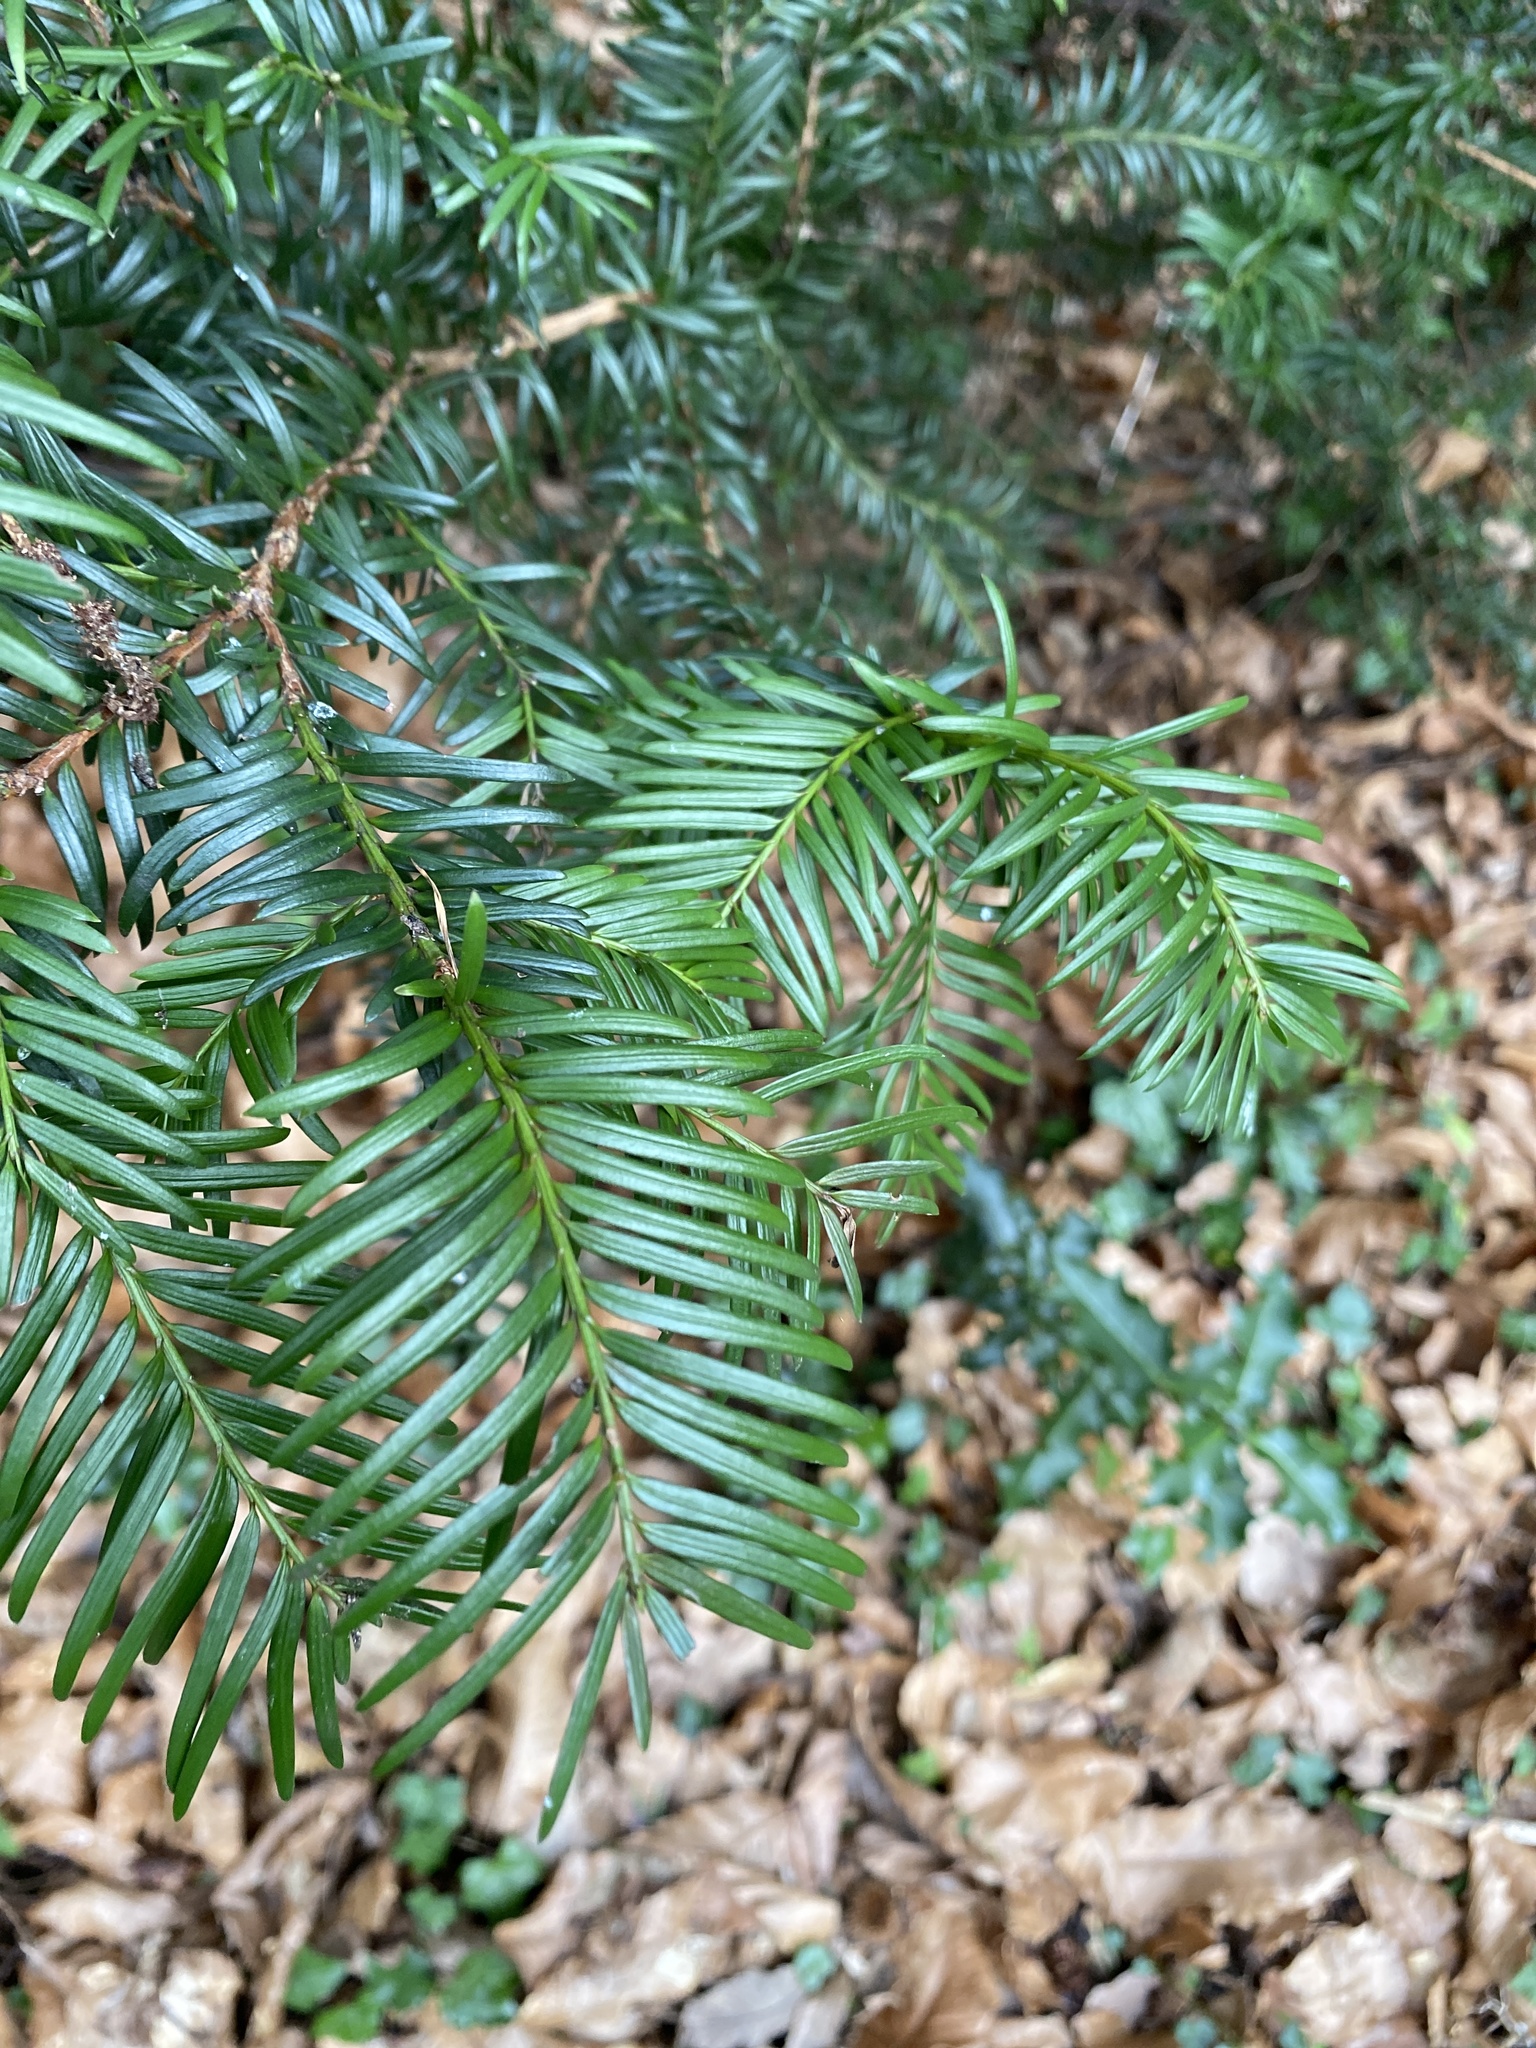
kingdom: Plantae
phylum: Tracheophyta
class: Pinopsida
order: Pinales
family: Taxaceae
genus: Taxus
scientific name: Taxus baccata
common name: Yew
